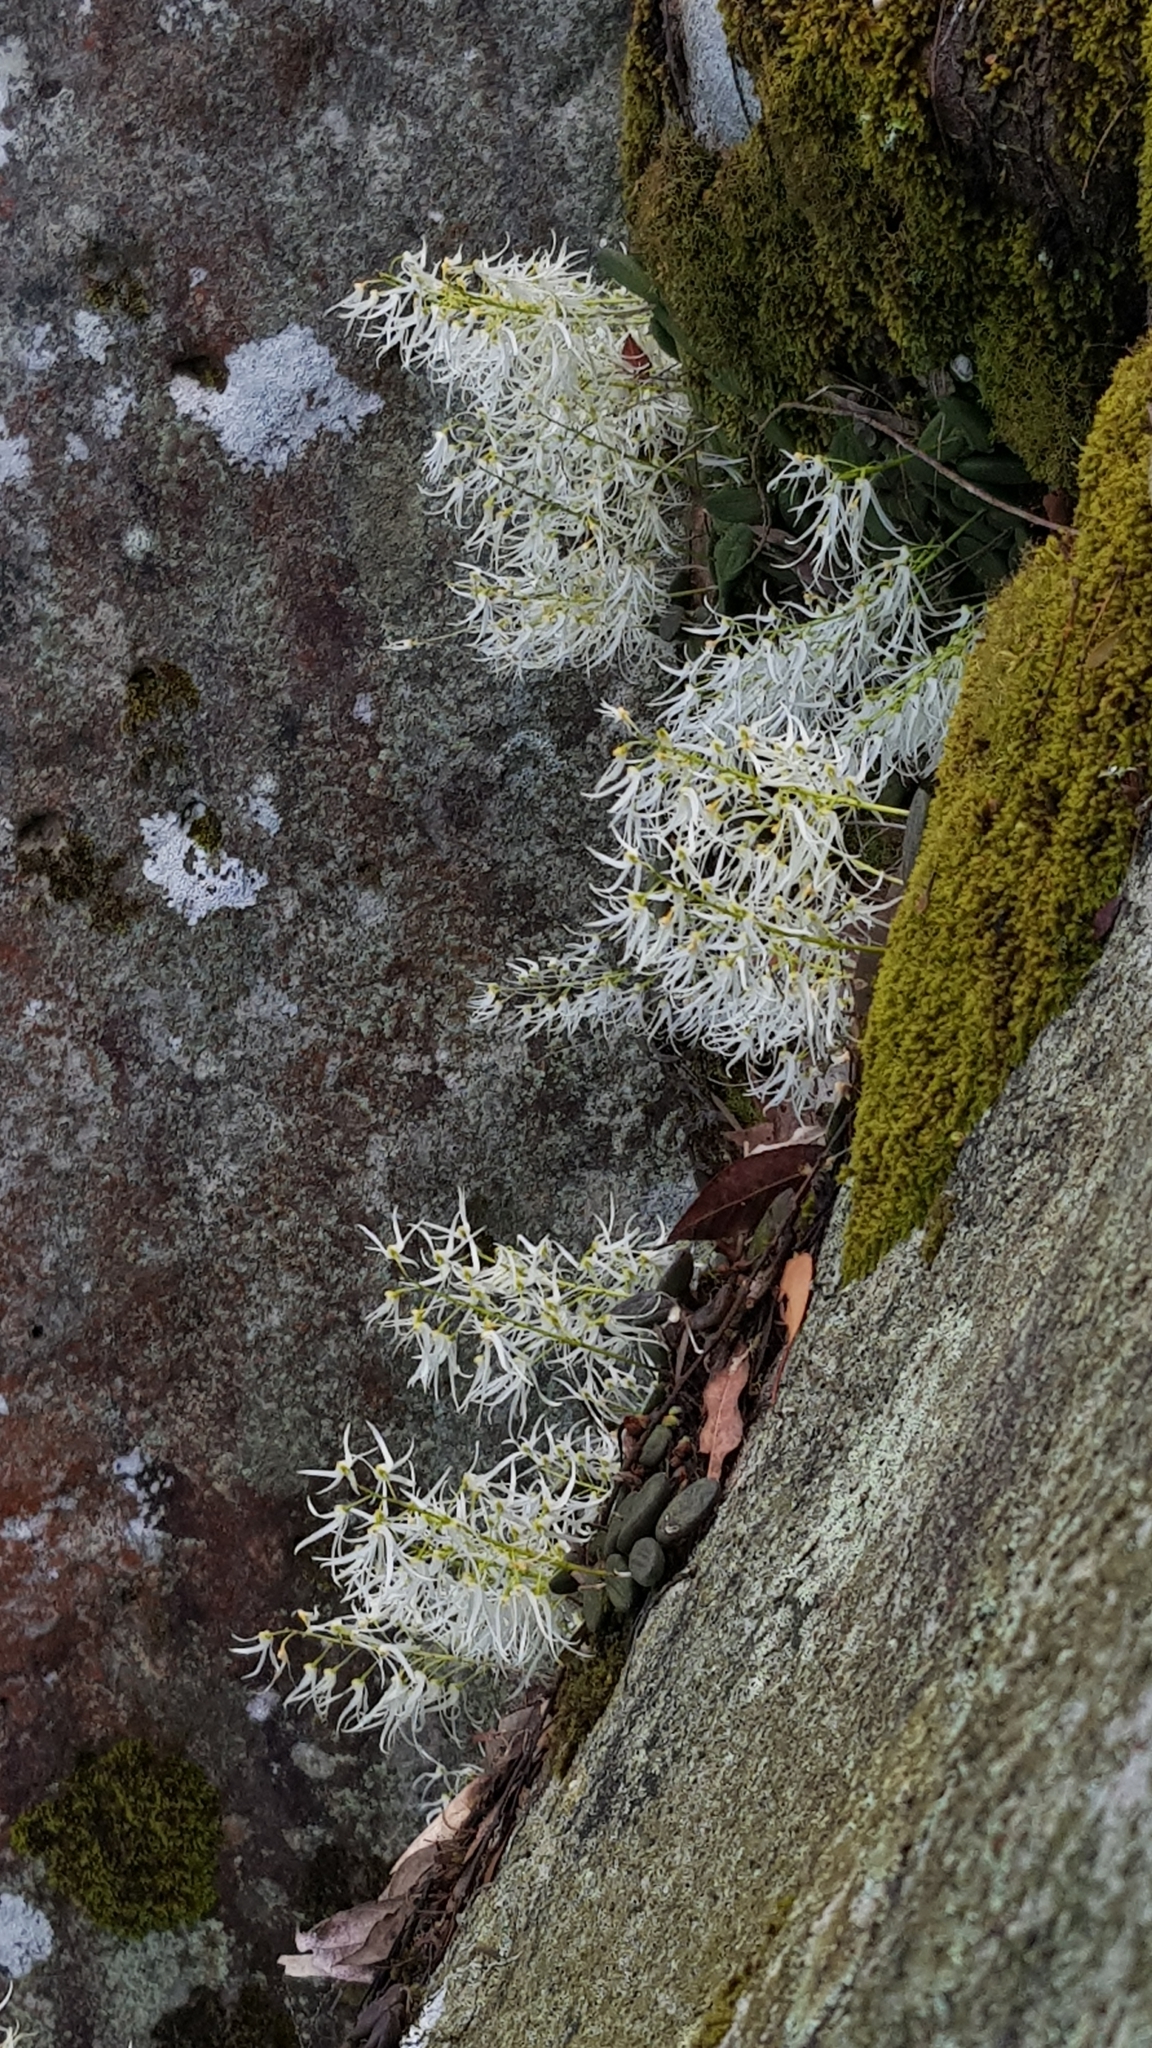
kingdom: Plantae
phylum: Tracheophyta
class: Liliopsida
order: Asparagales
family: Orchidaceae
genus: Dendrobium
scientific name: Dendrobium linguiforme
